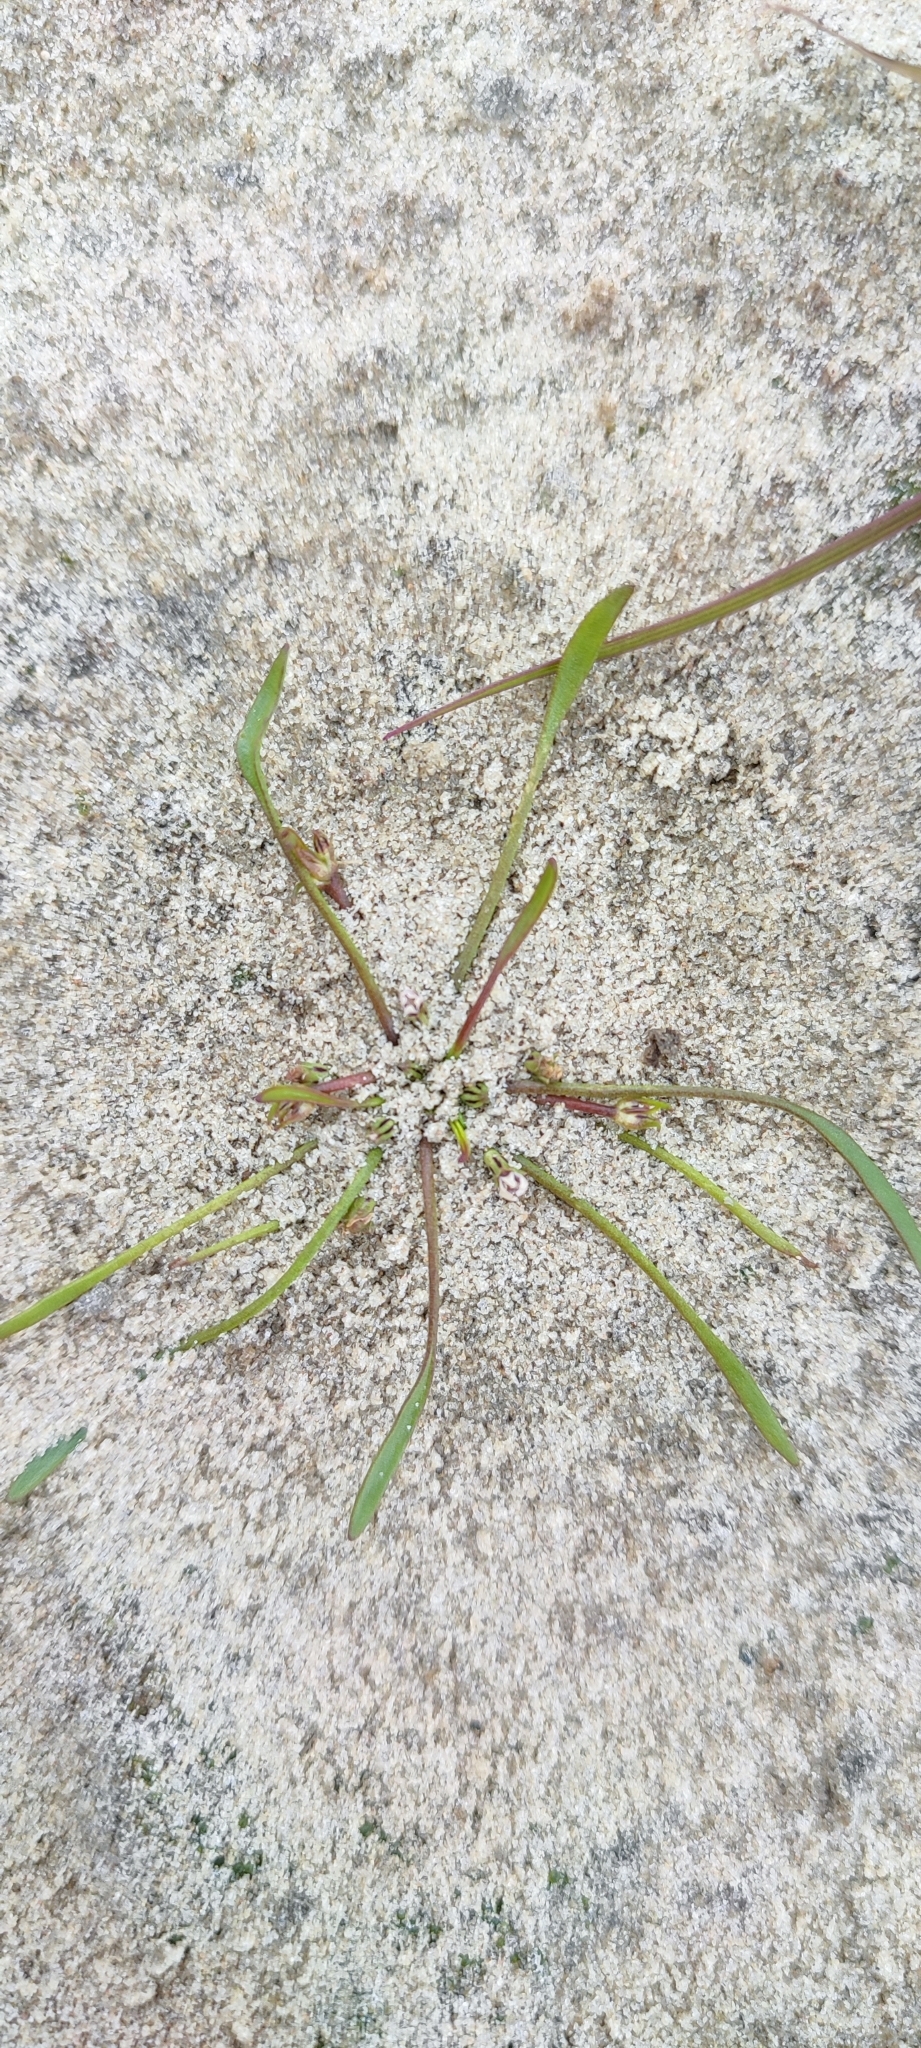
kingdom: Plantae
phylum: Tracheophyta
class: Magnoliopsida
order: Lamiales
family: Scrophulariaceae
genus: Limosella
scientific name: Limosella aquatica
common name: Mudwort
